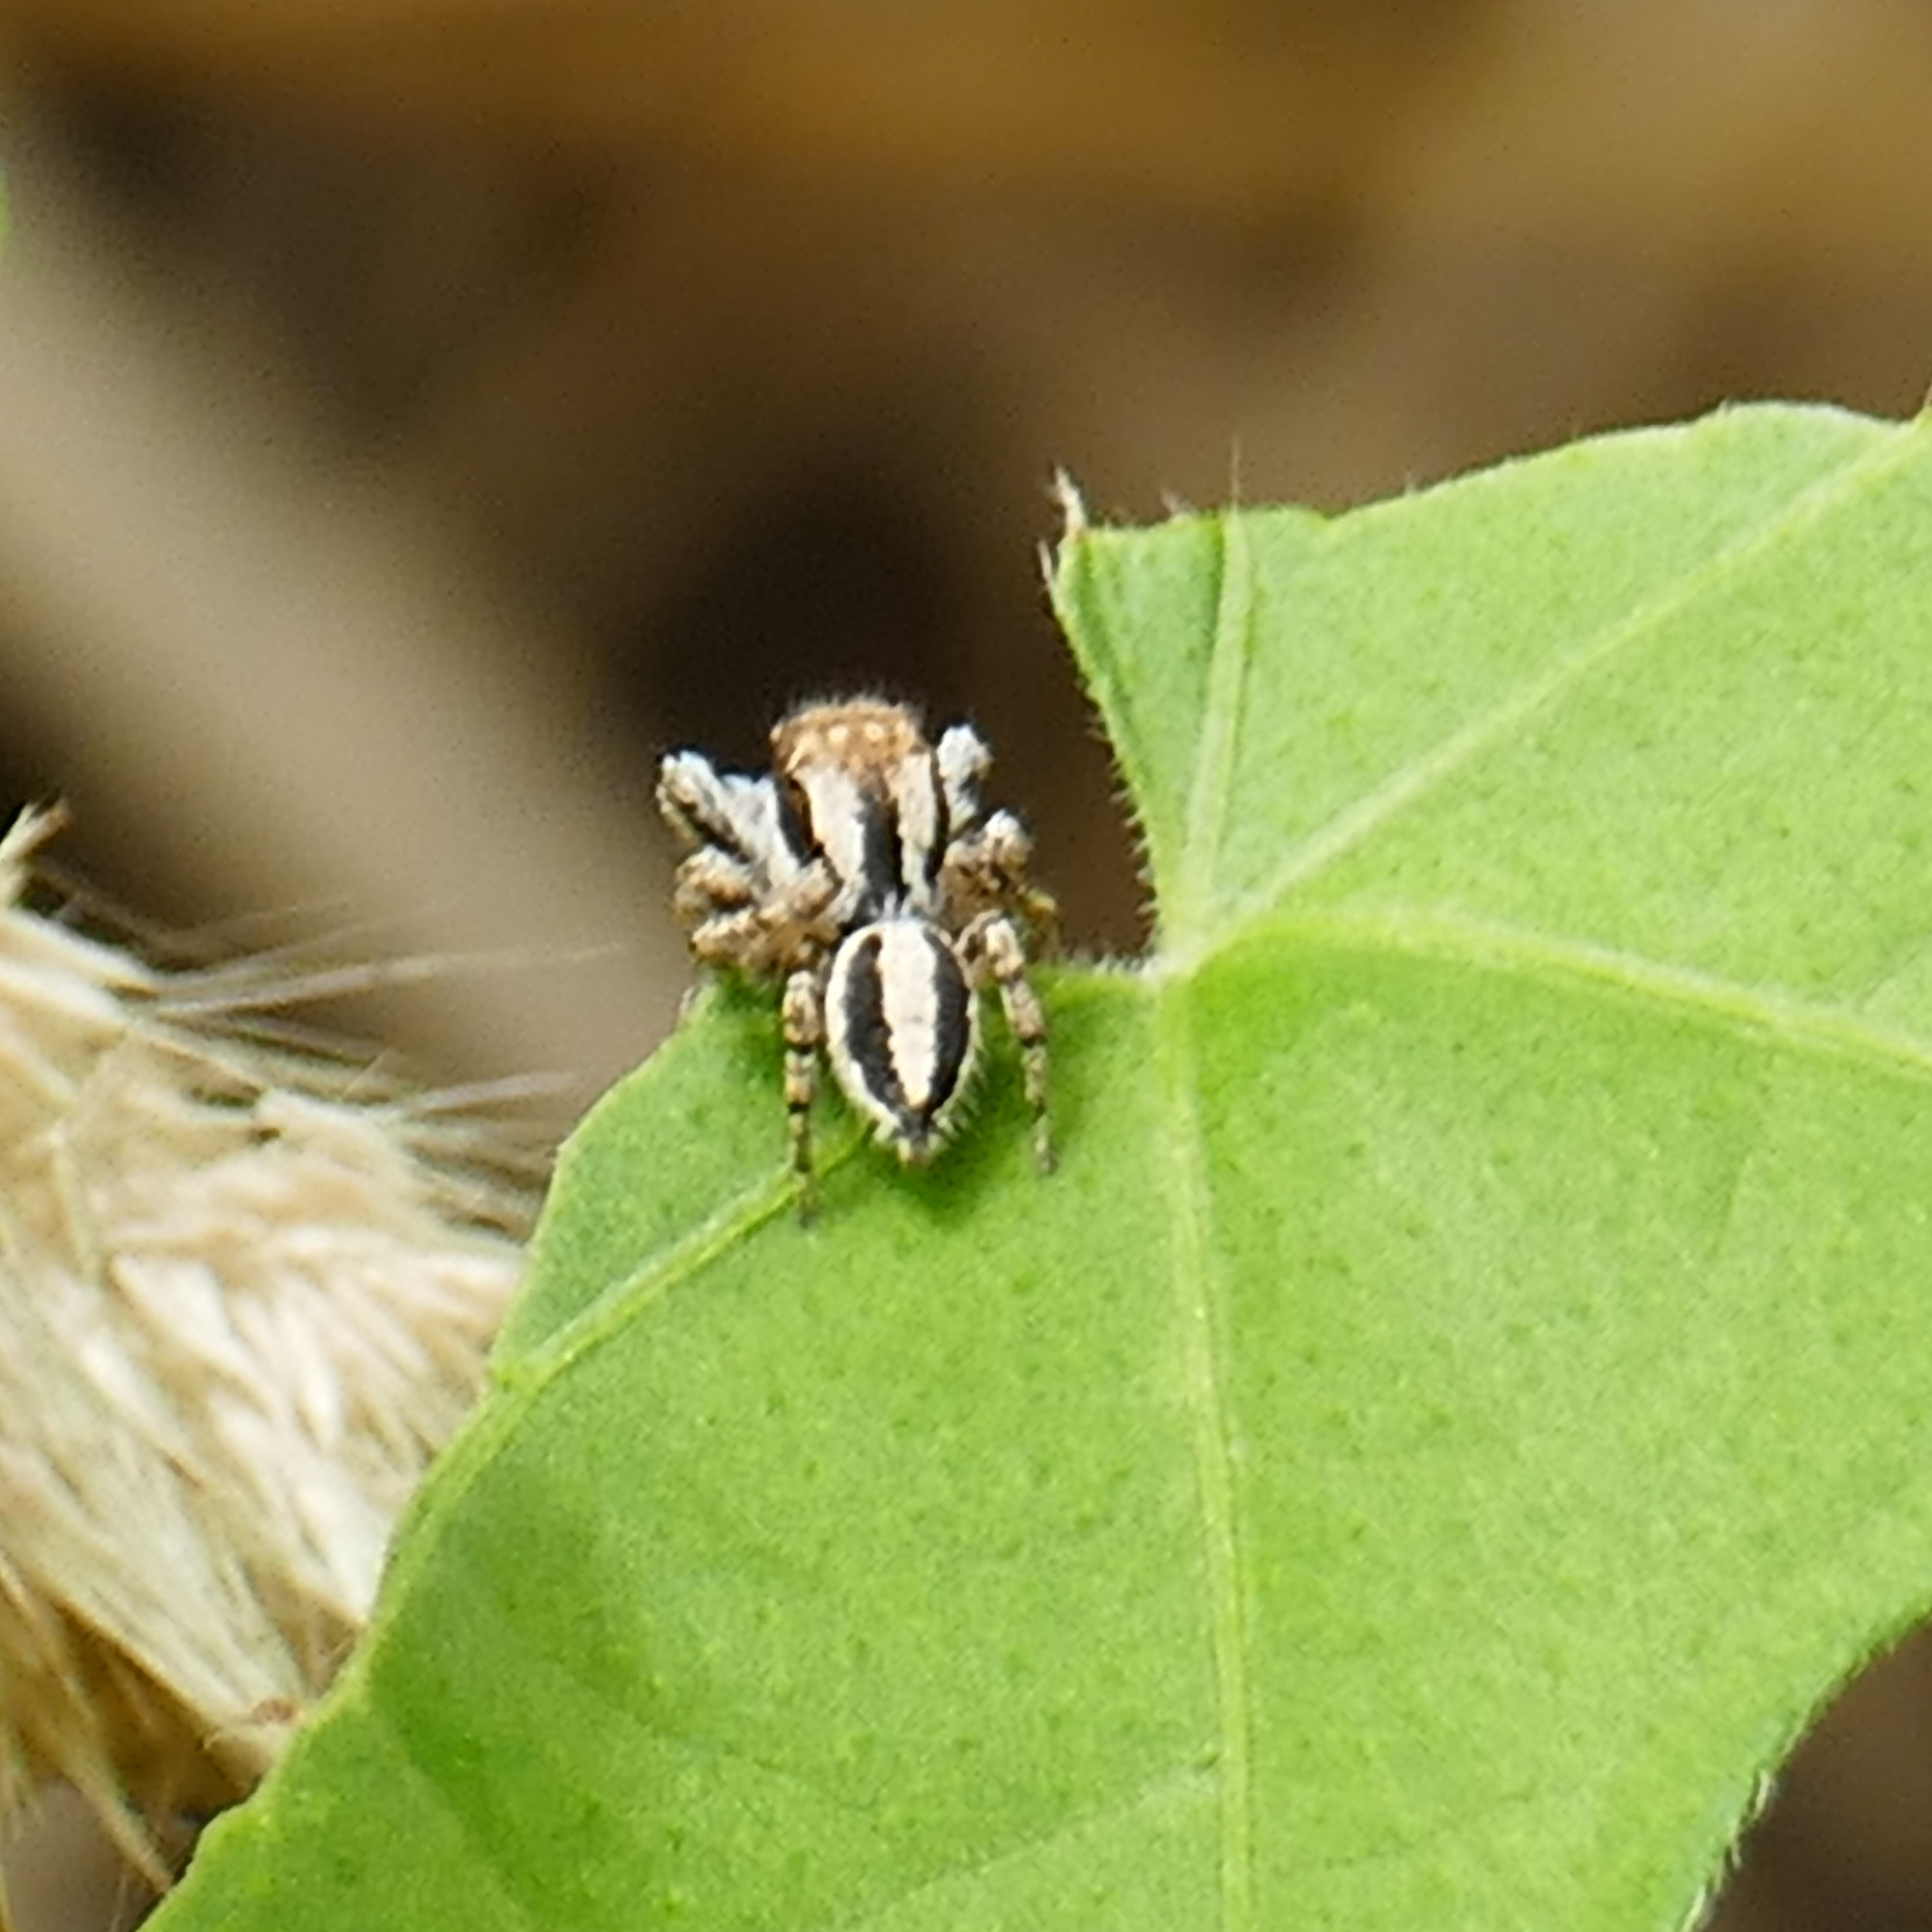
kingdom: Animalia
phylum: Arthropoda
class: Arachnida
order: Araneae
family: Salticidae
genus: Habronattus
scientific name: Habronattus conjunctus
